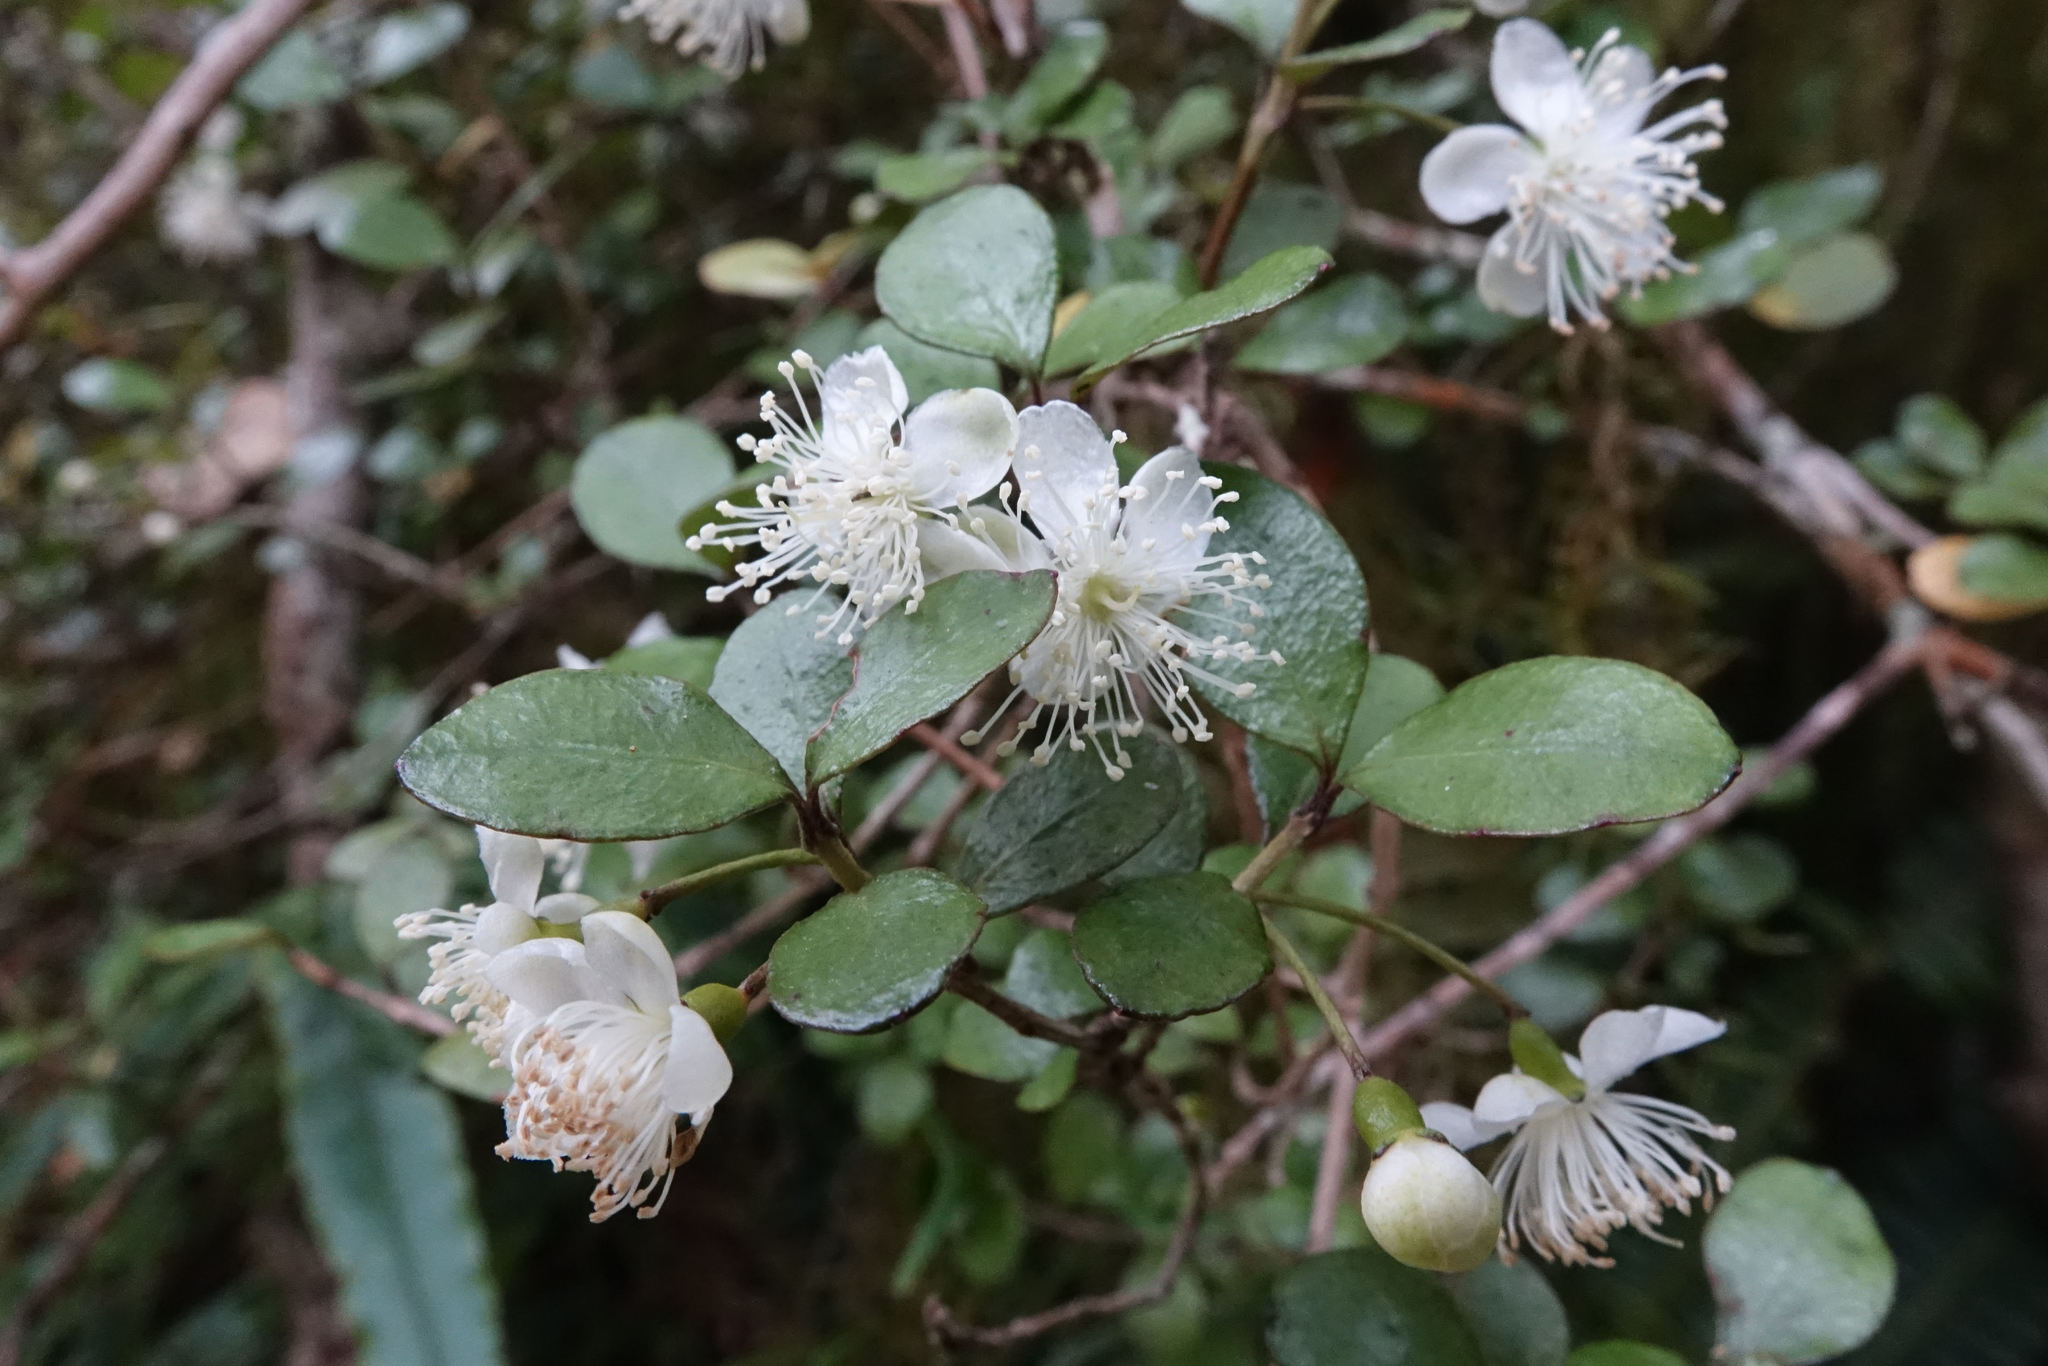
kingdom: Plantae
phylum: Tracheophyta
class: Magnoliopsida
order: Myrtales
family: Myrtaceae
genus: Neomyrtus
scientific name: Neomyrtus pedunculata
